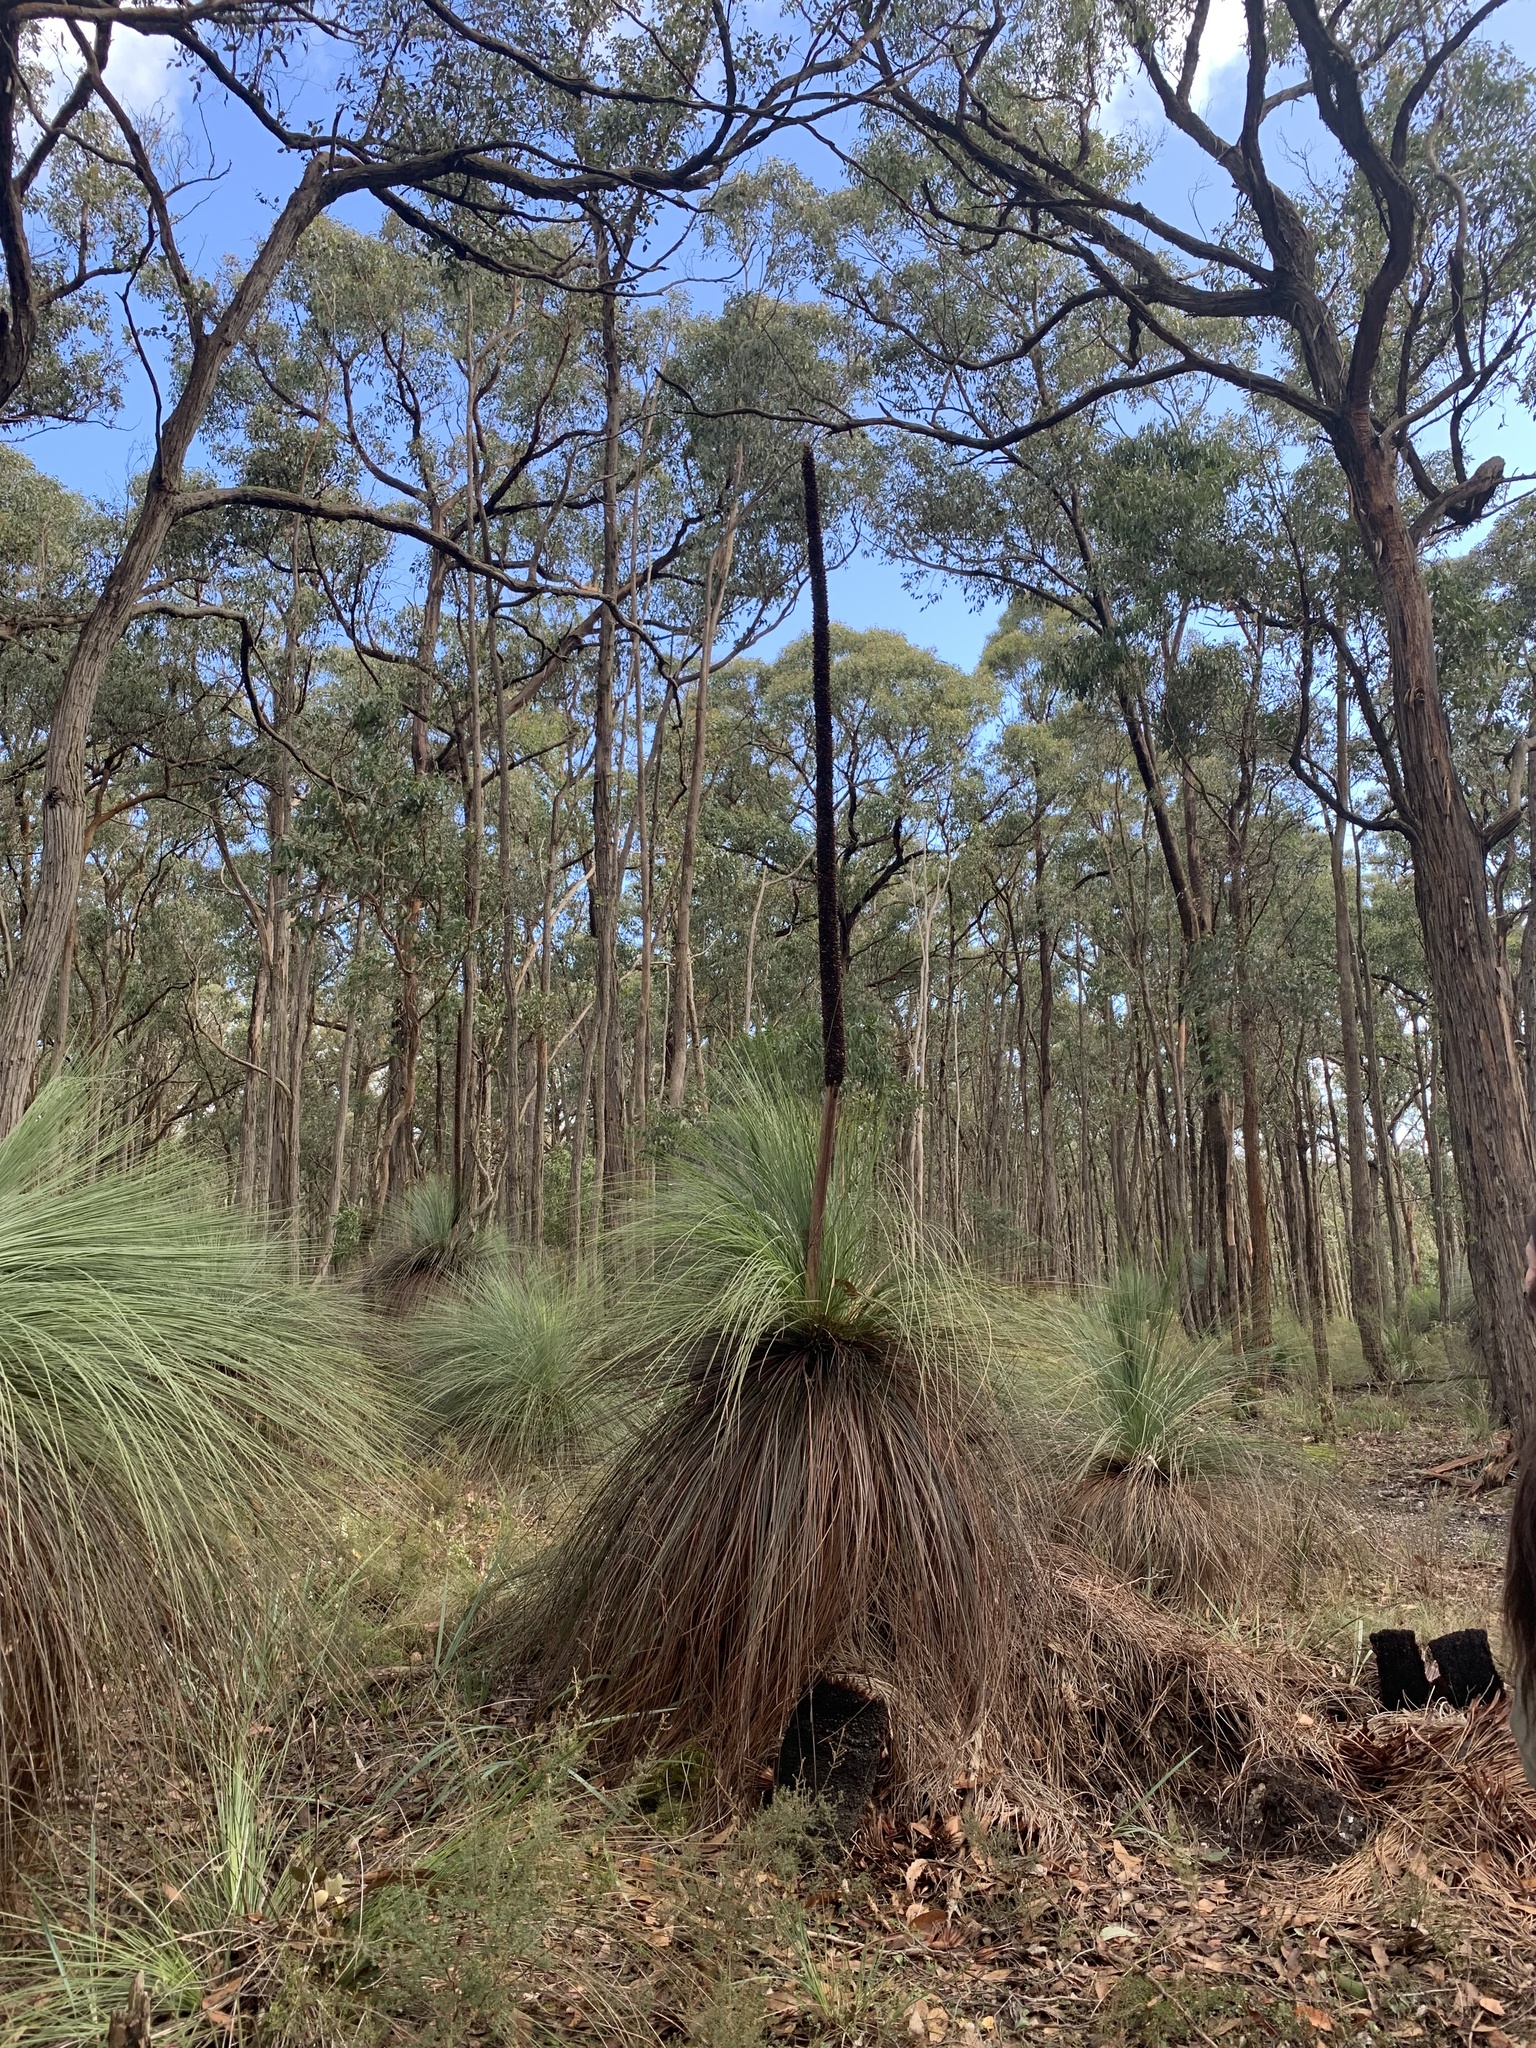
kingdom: Plantae
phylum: Tracheophyta
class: Liliopsida
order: Asparagales
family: Asphodelaceae
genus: Xanthorrhoea
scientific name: Xanthorrhoea australis
